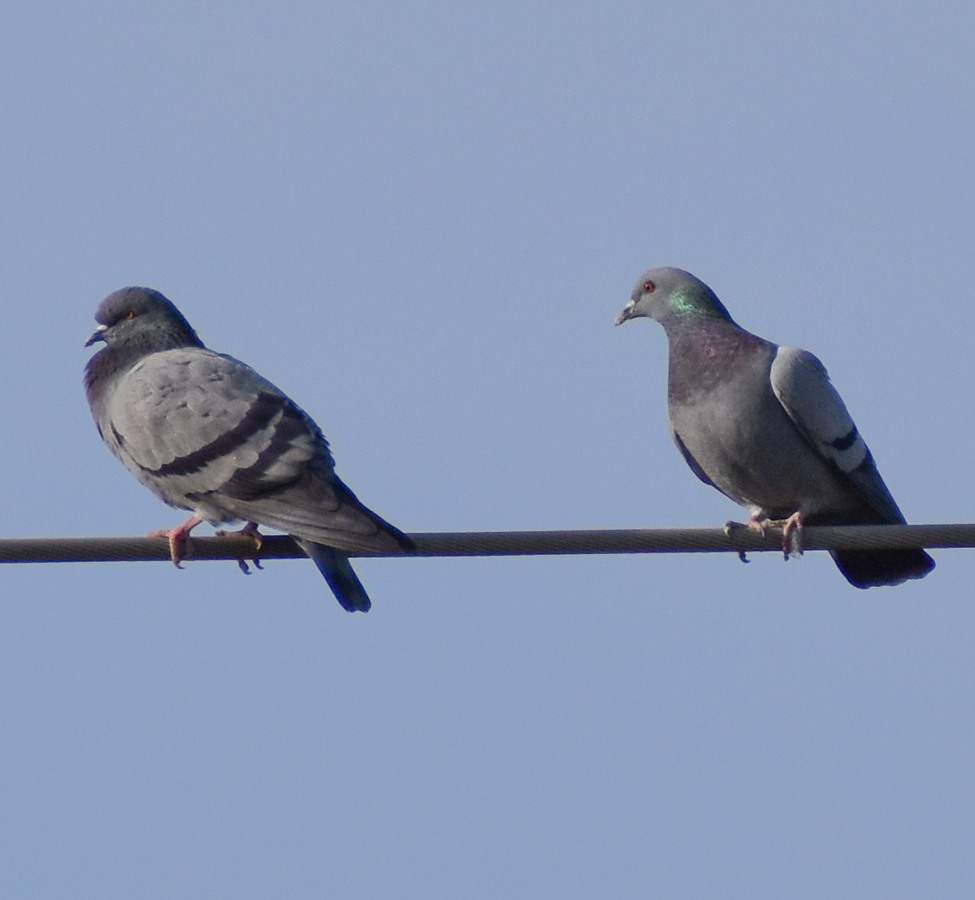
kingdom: Animalia
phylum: Chordata
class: Aves
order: Columbiformes
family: Columbidae
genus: Columba
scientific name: Columba livia
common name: Rock pigeon
